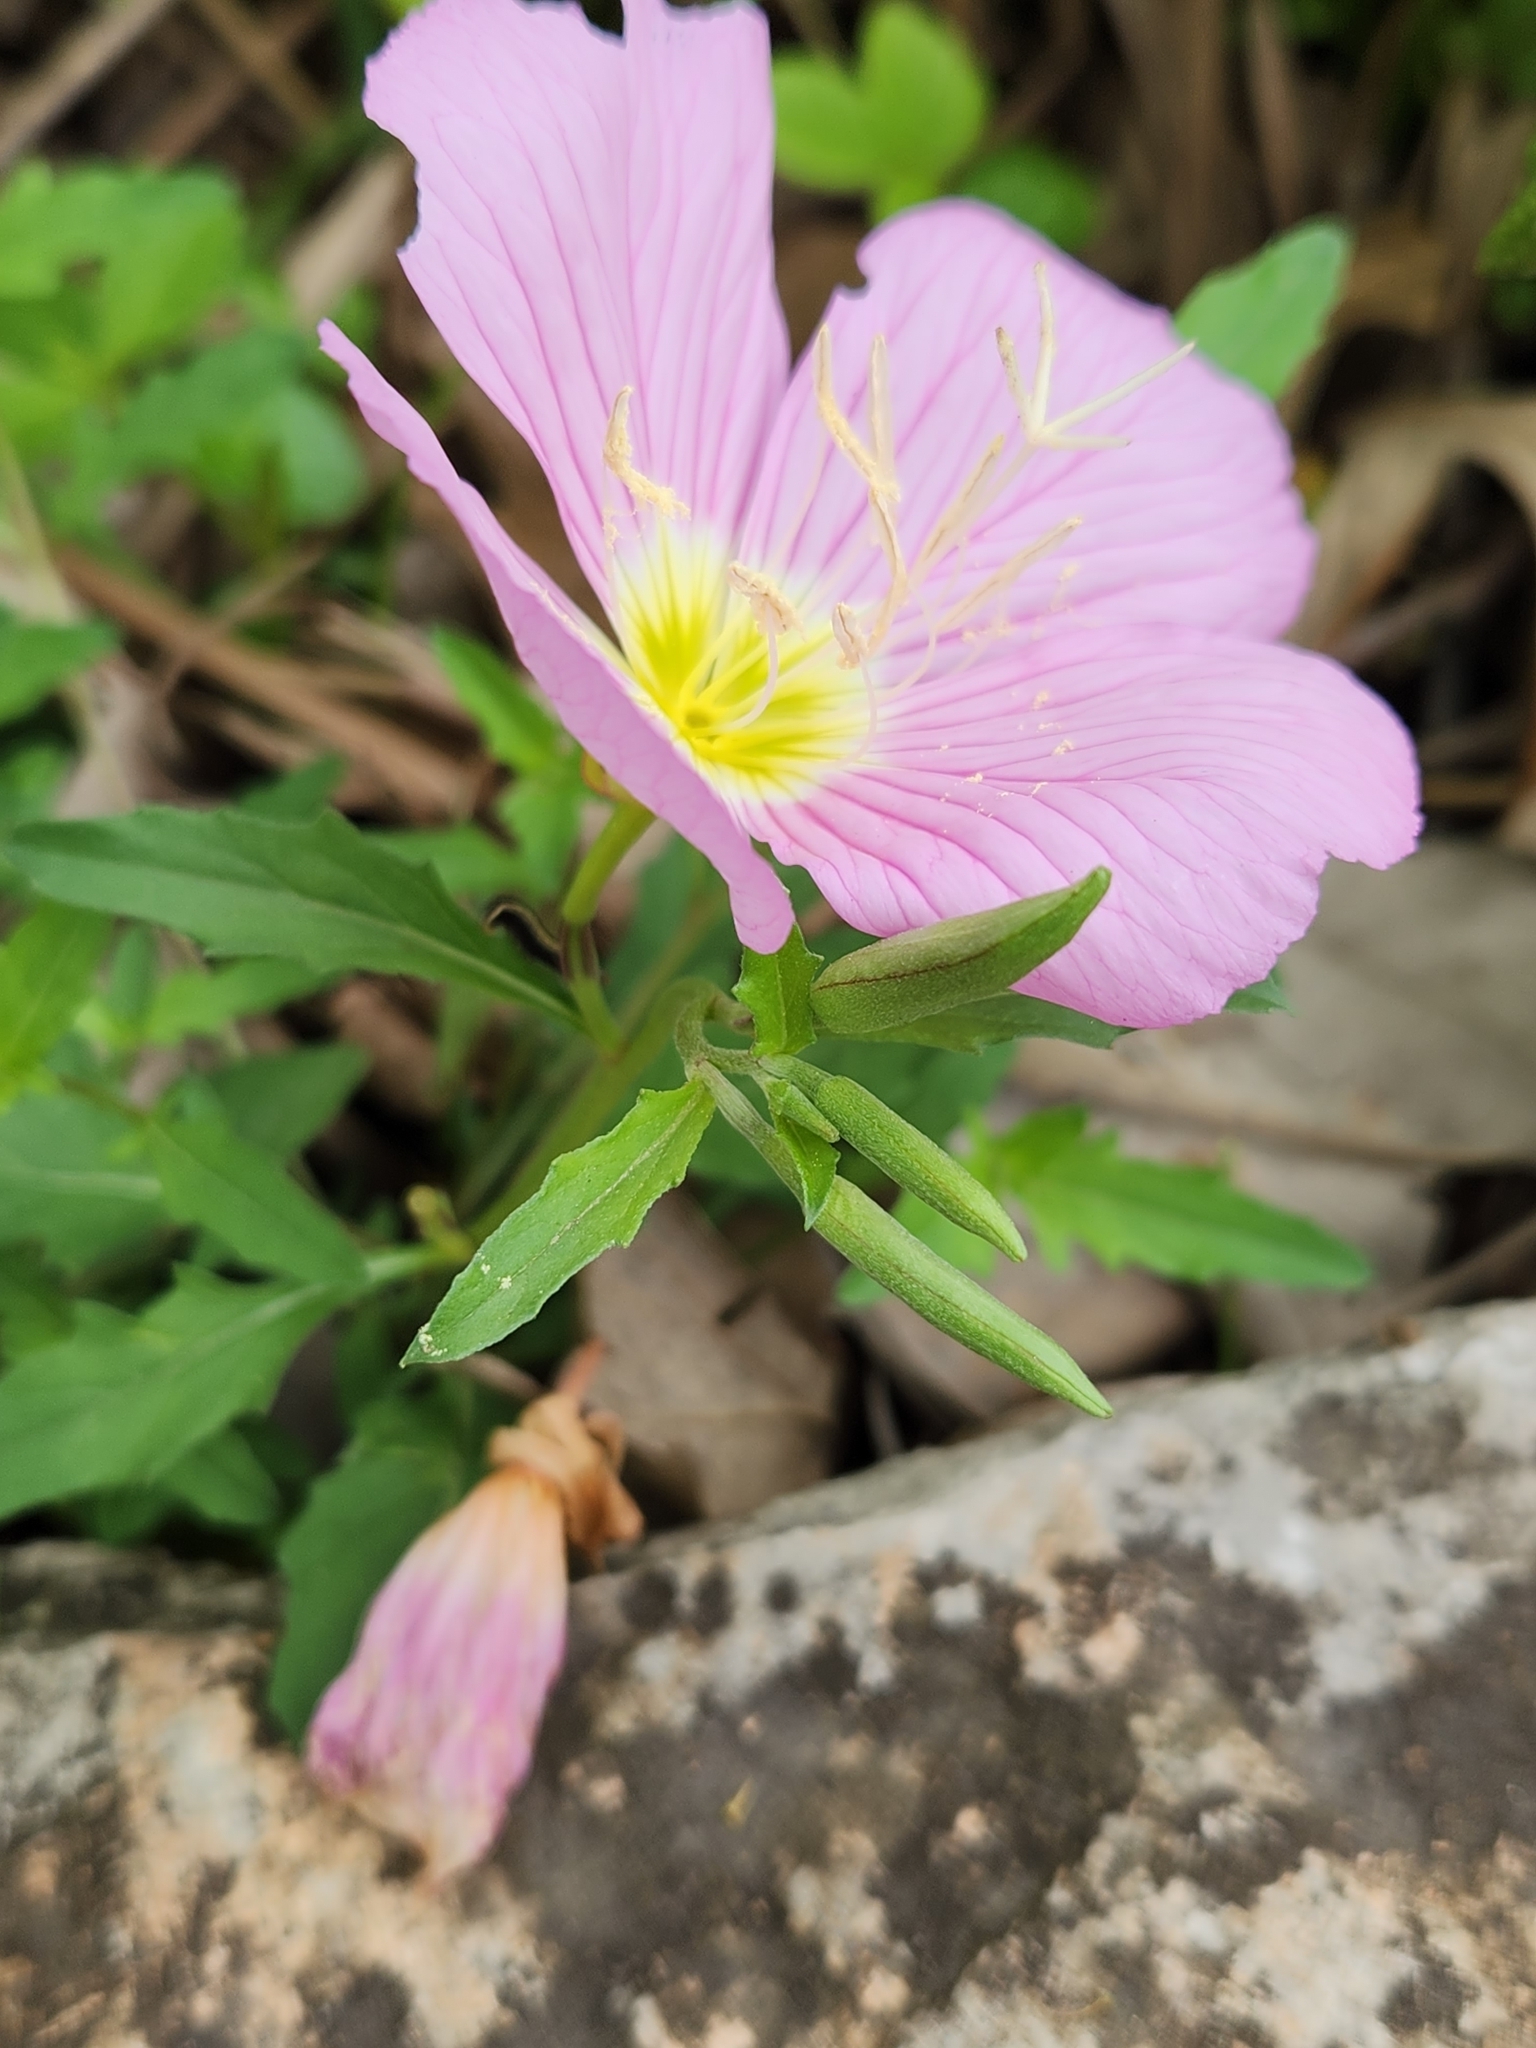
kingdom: Plantae
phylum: Tracheophyta
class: Magnoliopsida
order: Myrtales
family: Onagraceae
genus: Oenothera
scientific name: Oenothera speciosa
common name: White evening-primrose
